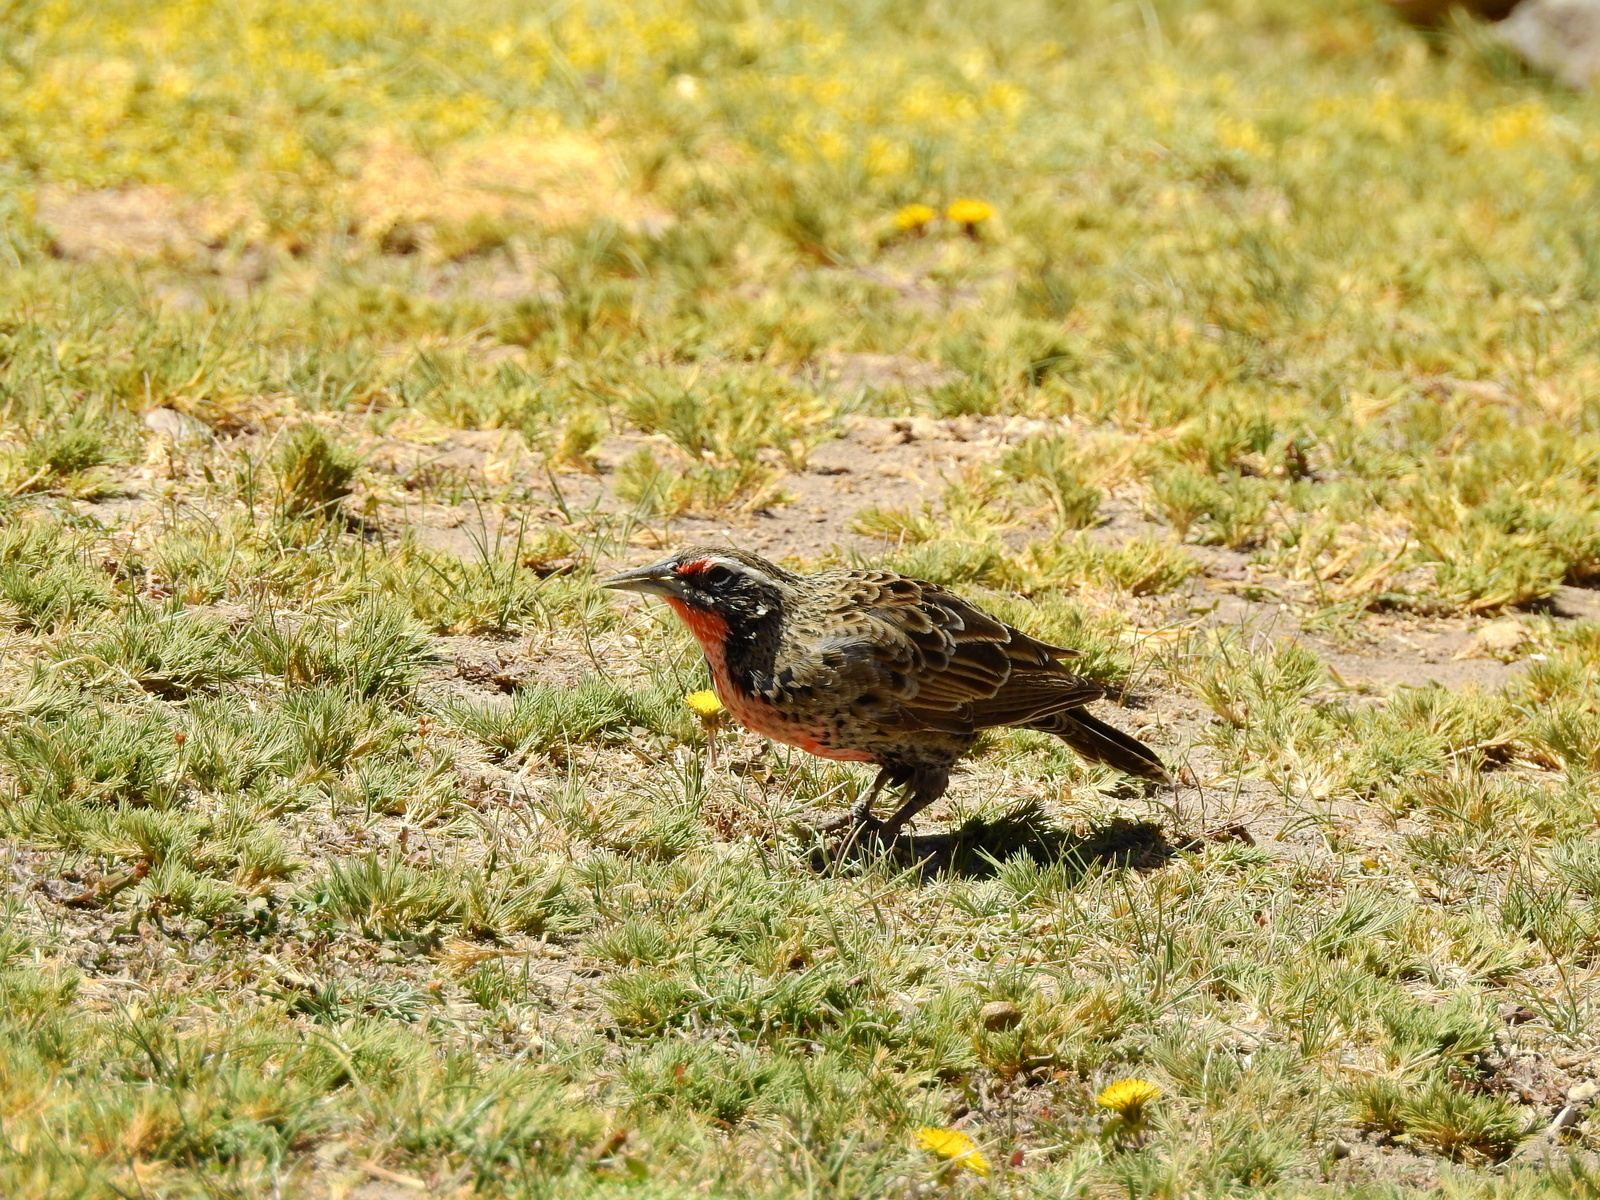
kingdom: Animalia
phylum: Chordata
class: Aves
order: Passeriformes
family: Icteridae
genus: Sturnella
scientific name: Sturnella loyca
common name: Long-tailed meadowlark
